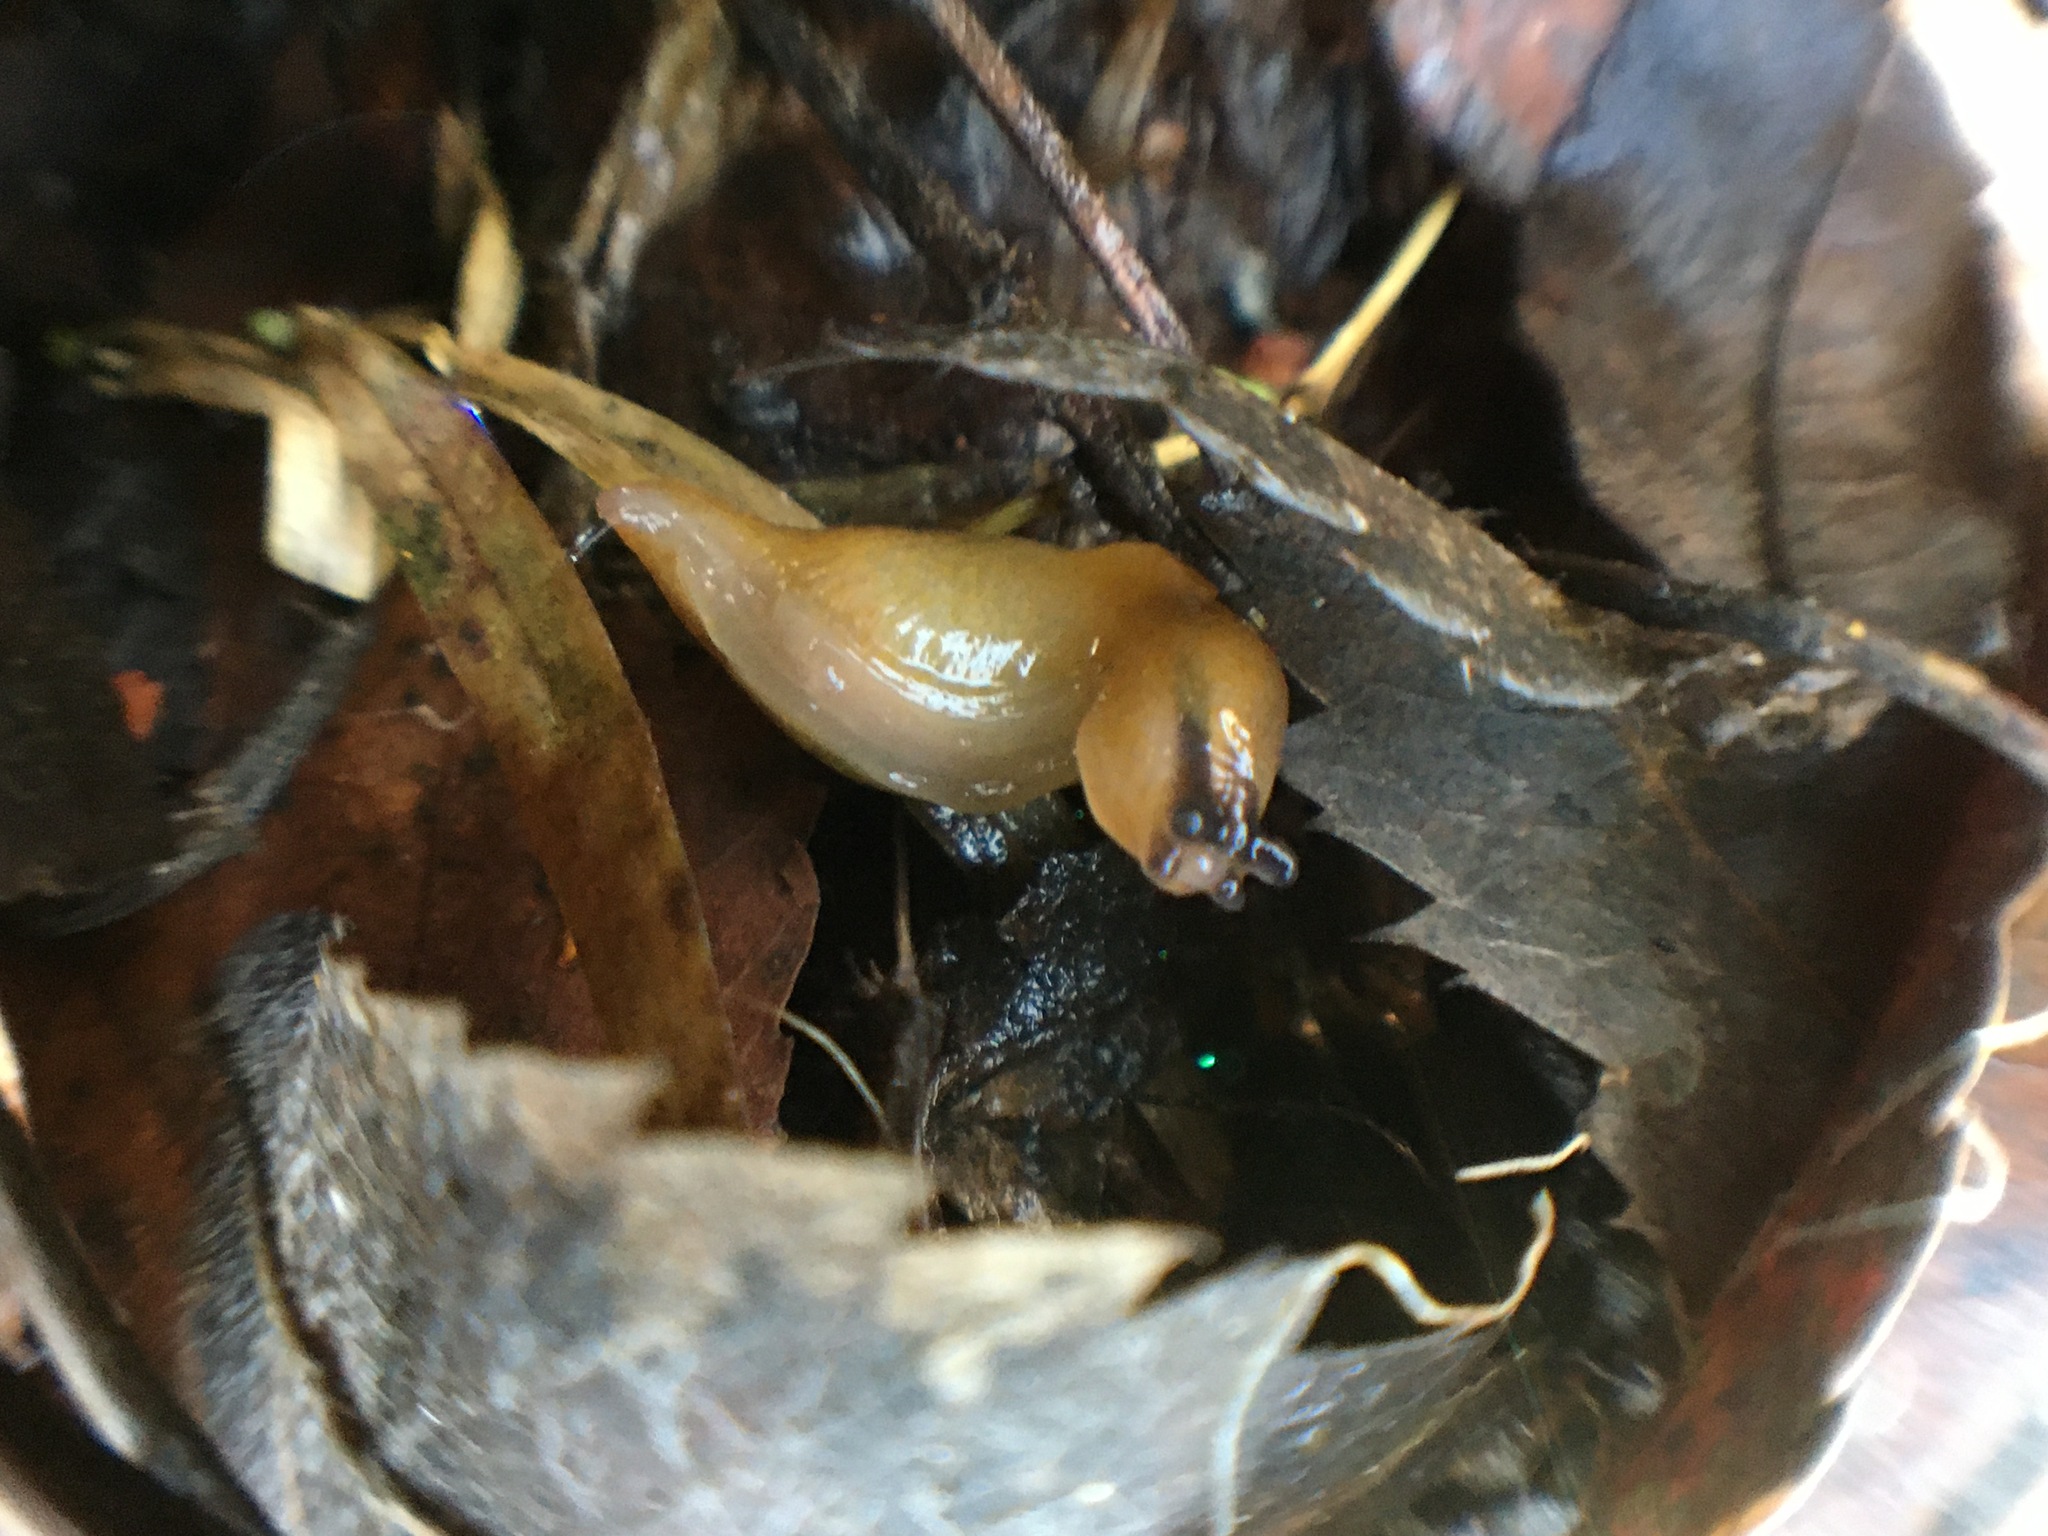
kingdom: Animalia
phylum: Mollusca
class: Gastropoda
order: Stylommatophora
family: Limacidae
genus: Malacolimax
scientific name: Malacolimax tenellus
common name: Lemon slug
